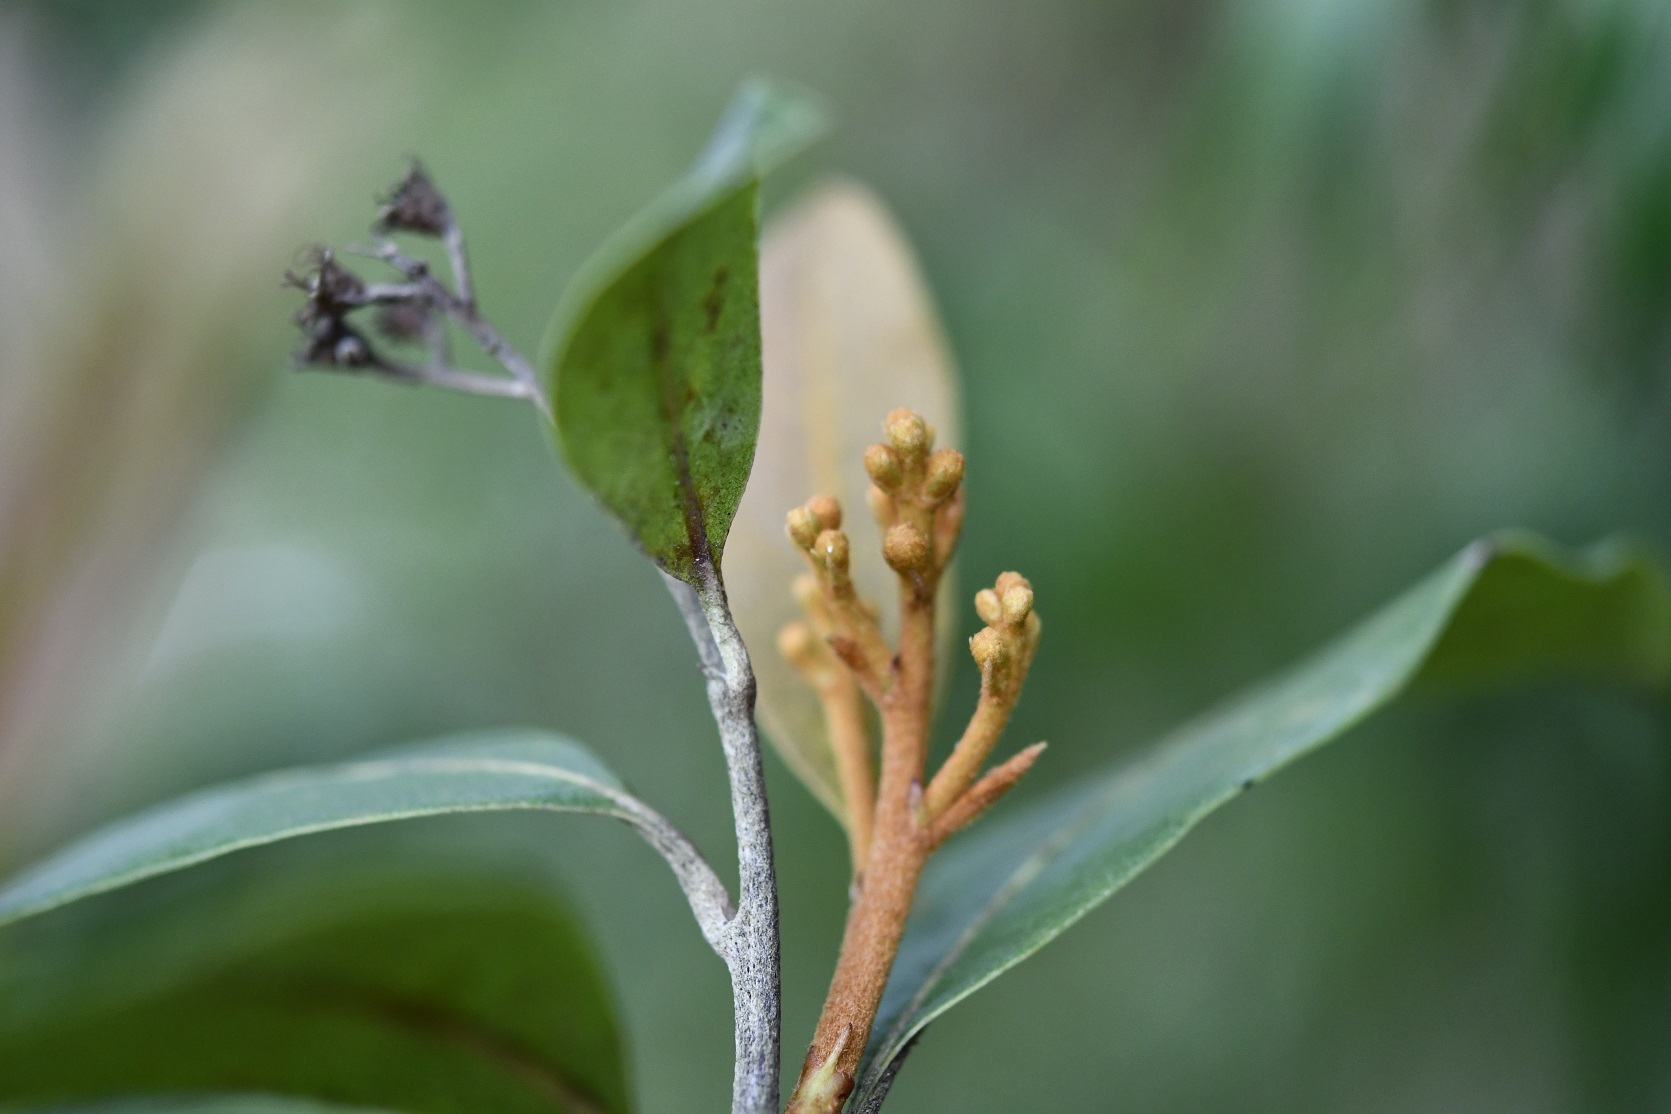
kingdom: Plantae
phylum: Tracheophyta
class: Magnoliopsida
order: Rosales
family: Rosaceae
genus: Phippsiomeles
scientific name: Phippsiomeles matudae
